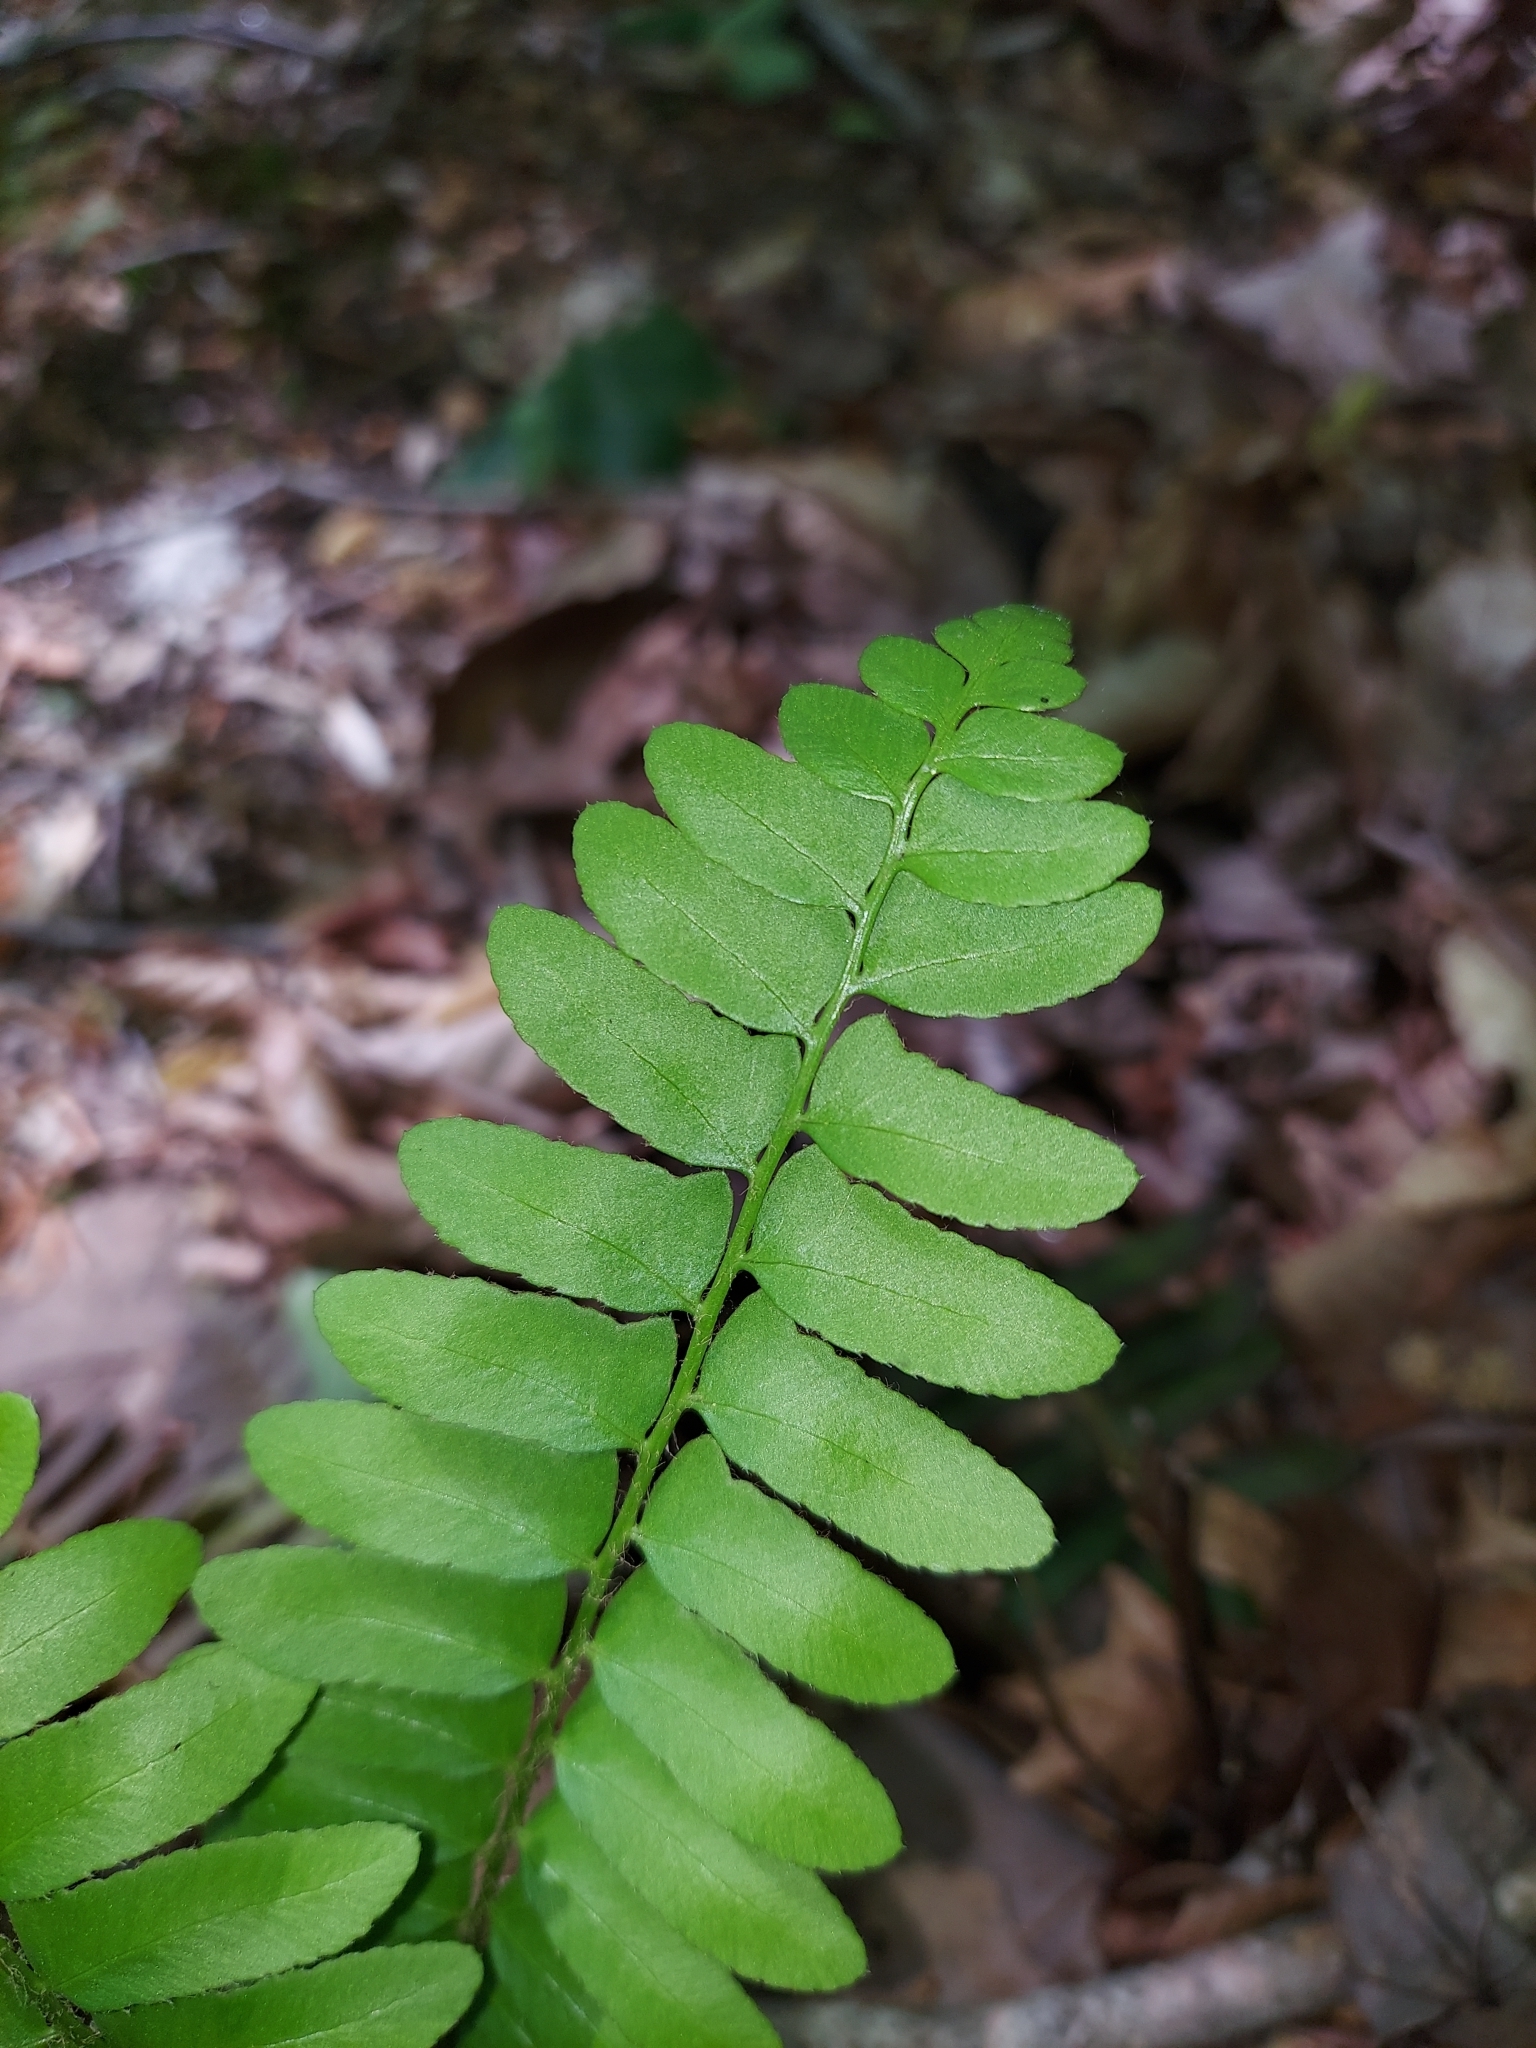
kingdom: Plantae
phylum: Tracheophyta
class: Polypodiopsida
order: Polypodiales
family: Dryopteridaceae
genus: Polystichum
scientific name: Polystichum acrostichoides
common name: Christmas fern
